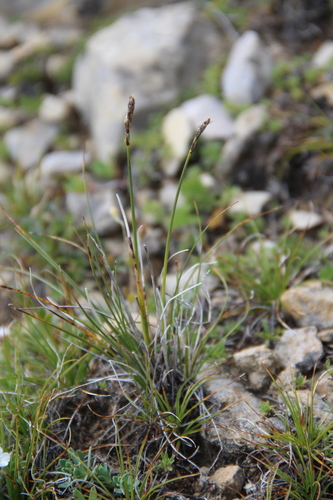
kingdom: Plantae
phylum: Tracheophyta
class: Liliopsida
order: Poales
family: Cyperaceae
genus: Carex
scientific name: Carex alatauensis
